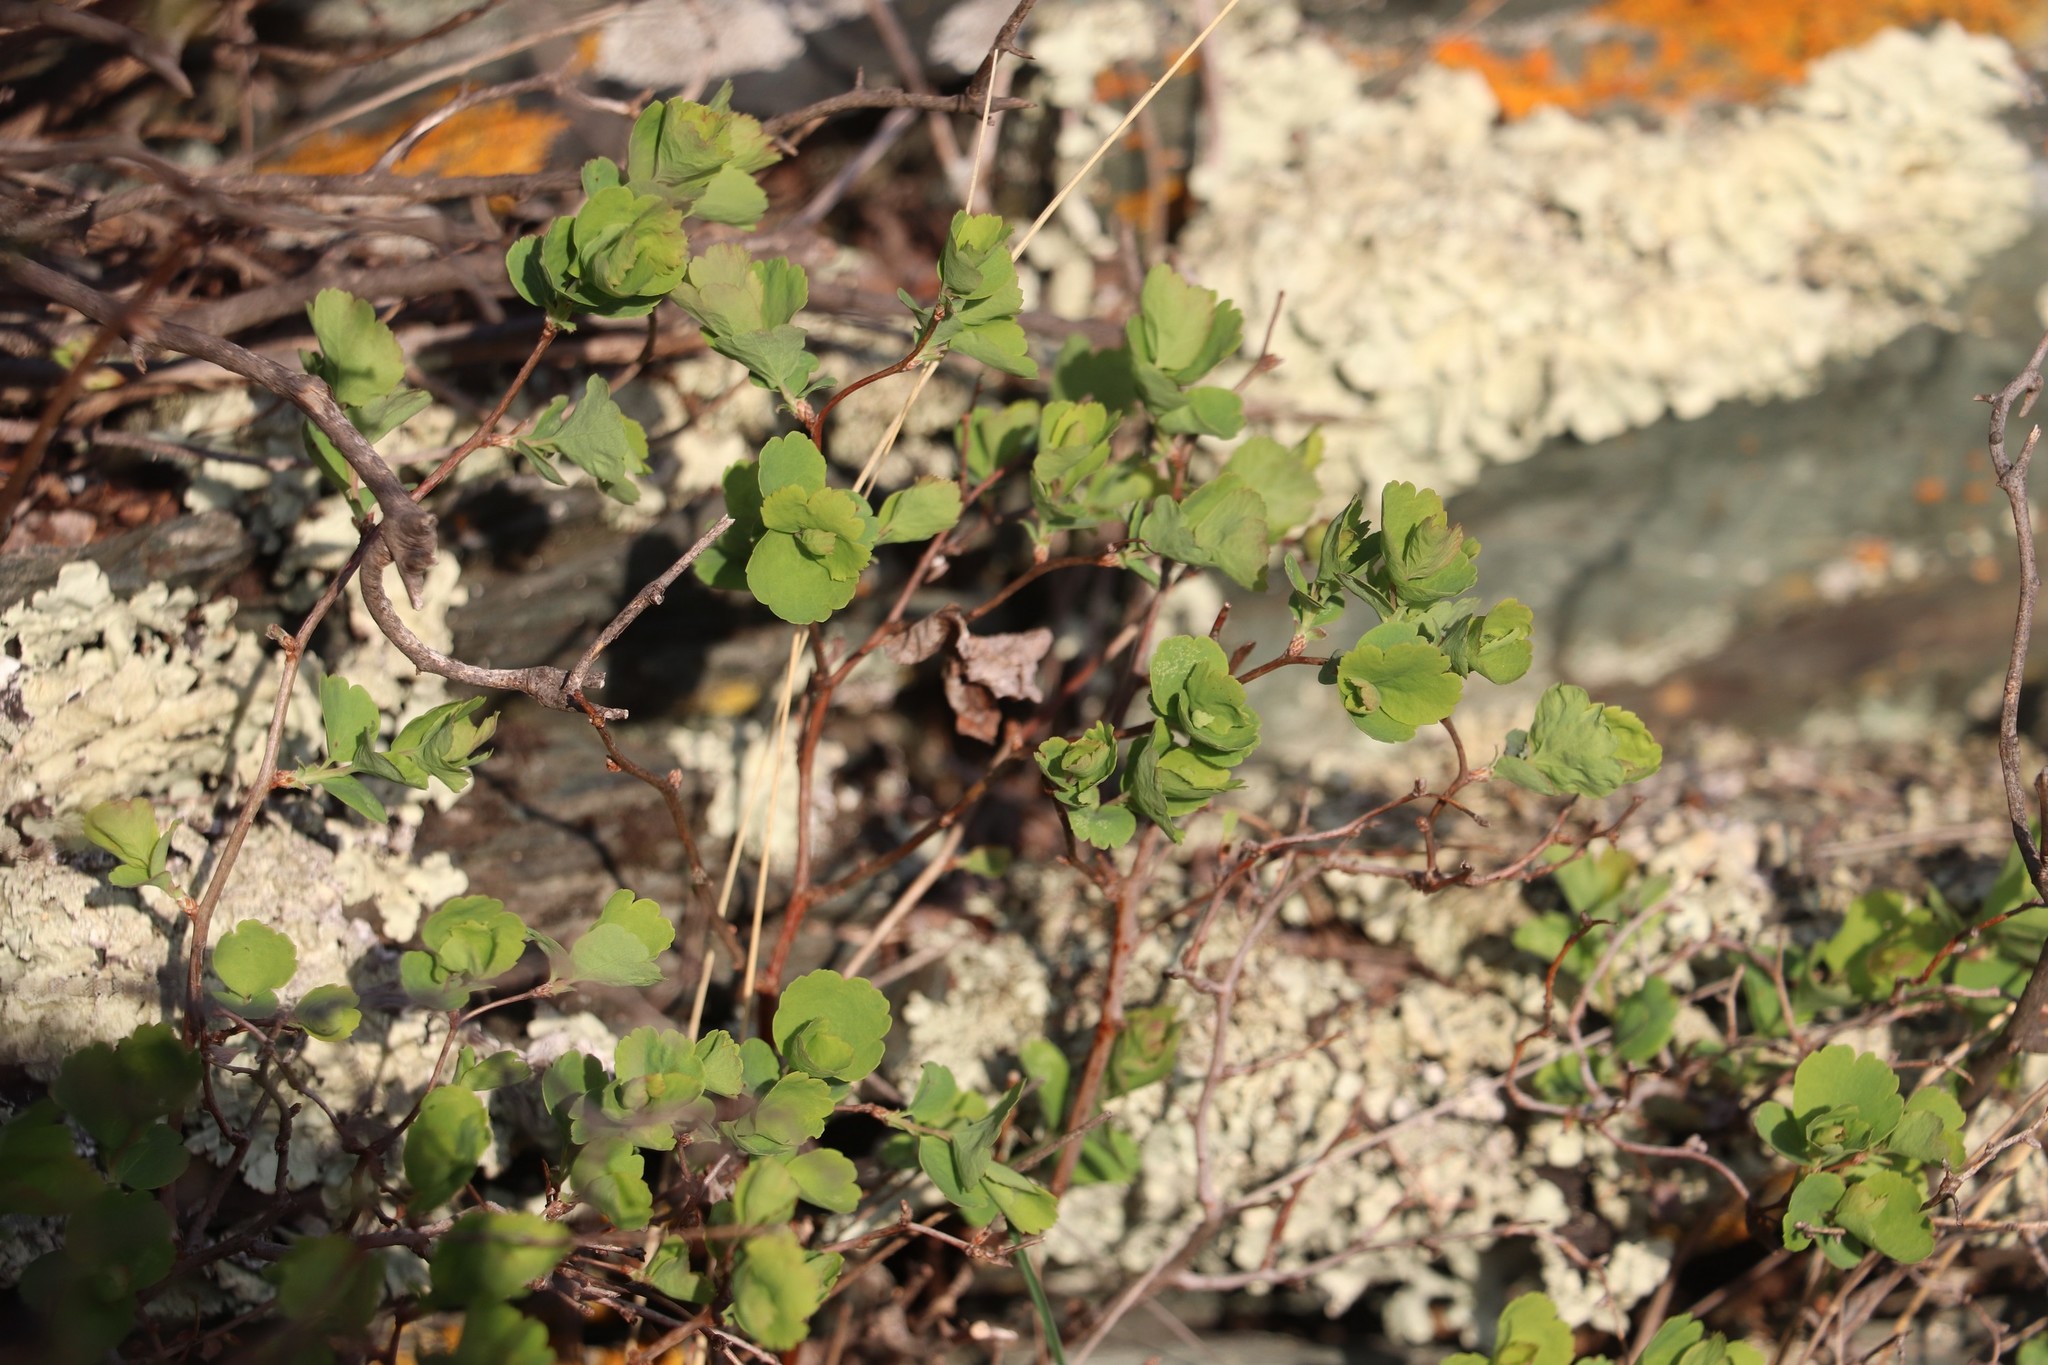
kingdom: Plantae
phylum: Tracheophyta
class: Magnoliopsida
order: Rosales
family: Rosaceae
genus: Spiraea
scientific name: Spiraea trilobata
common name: Asian meadowsweet
